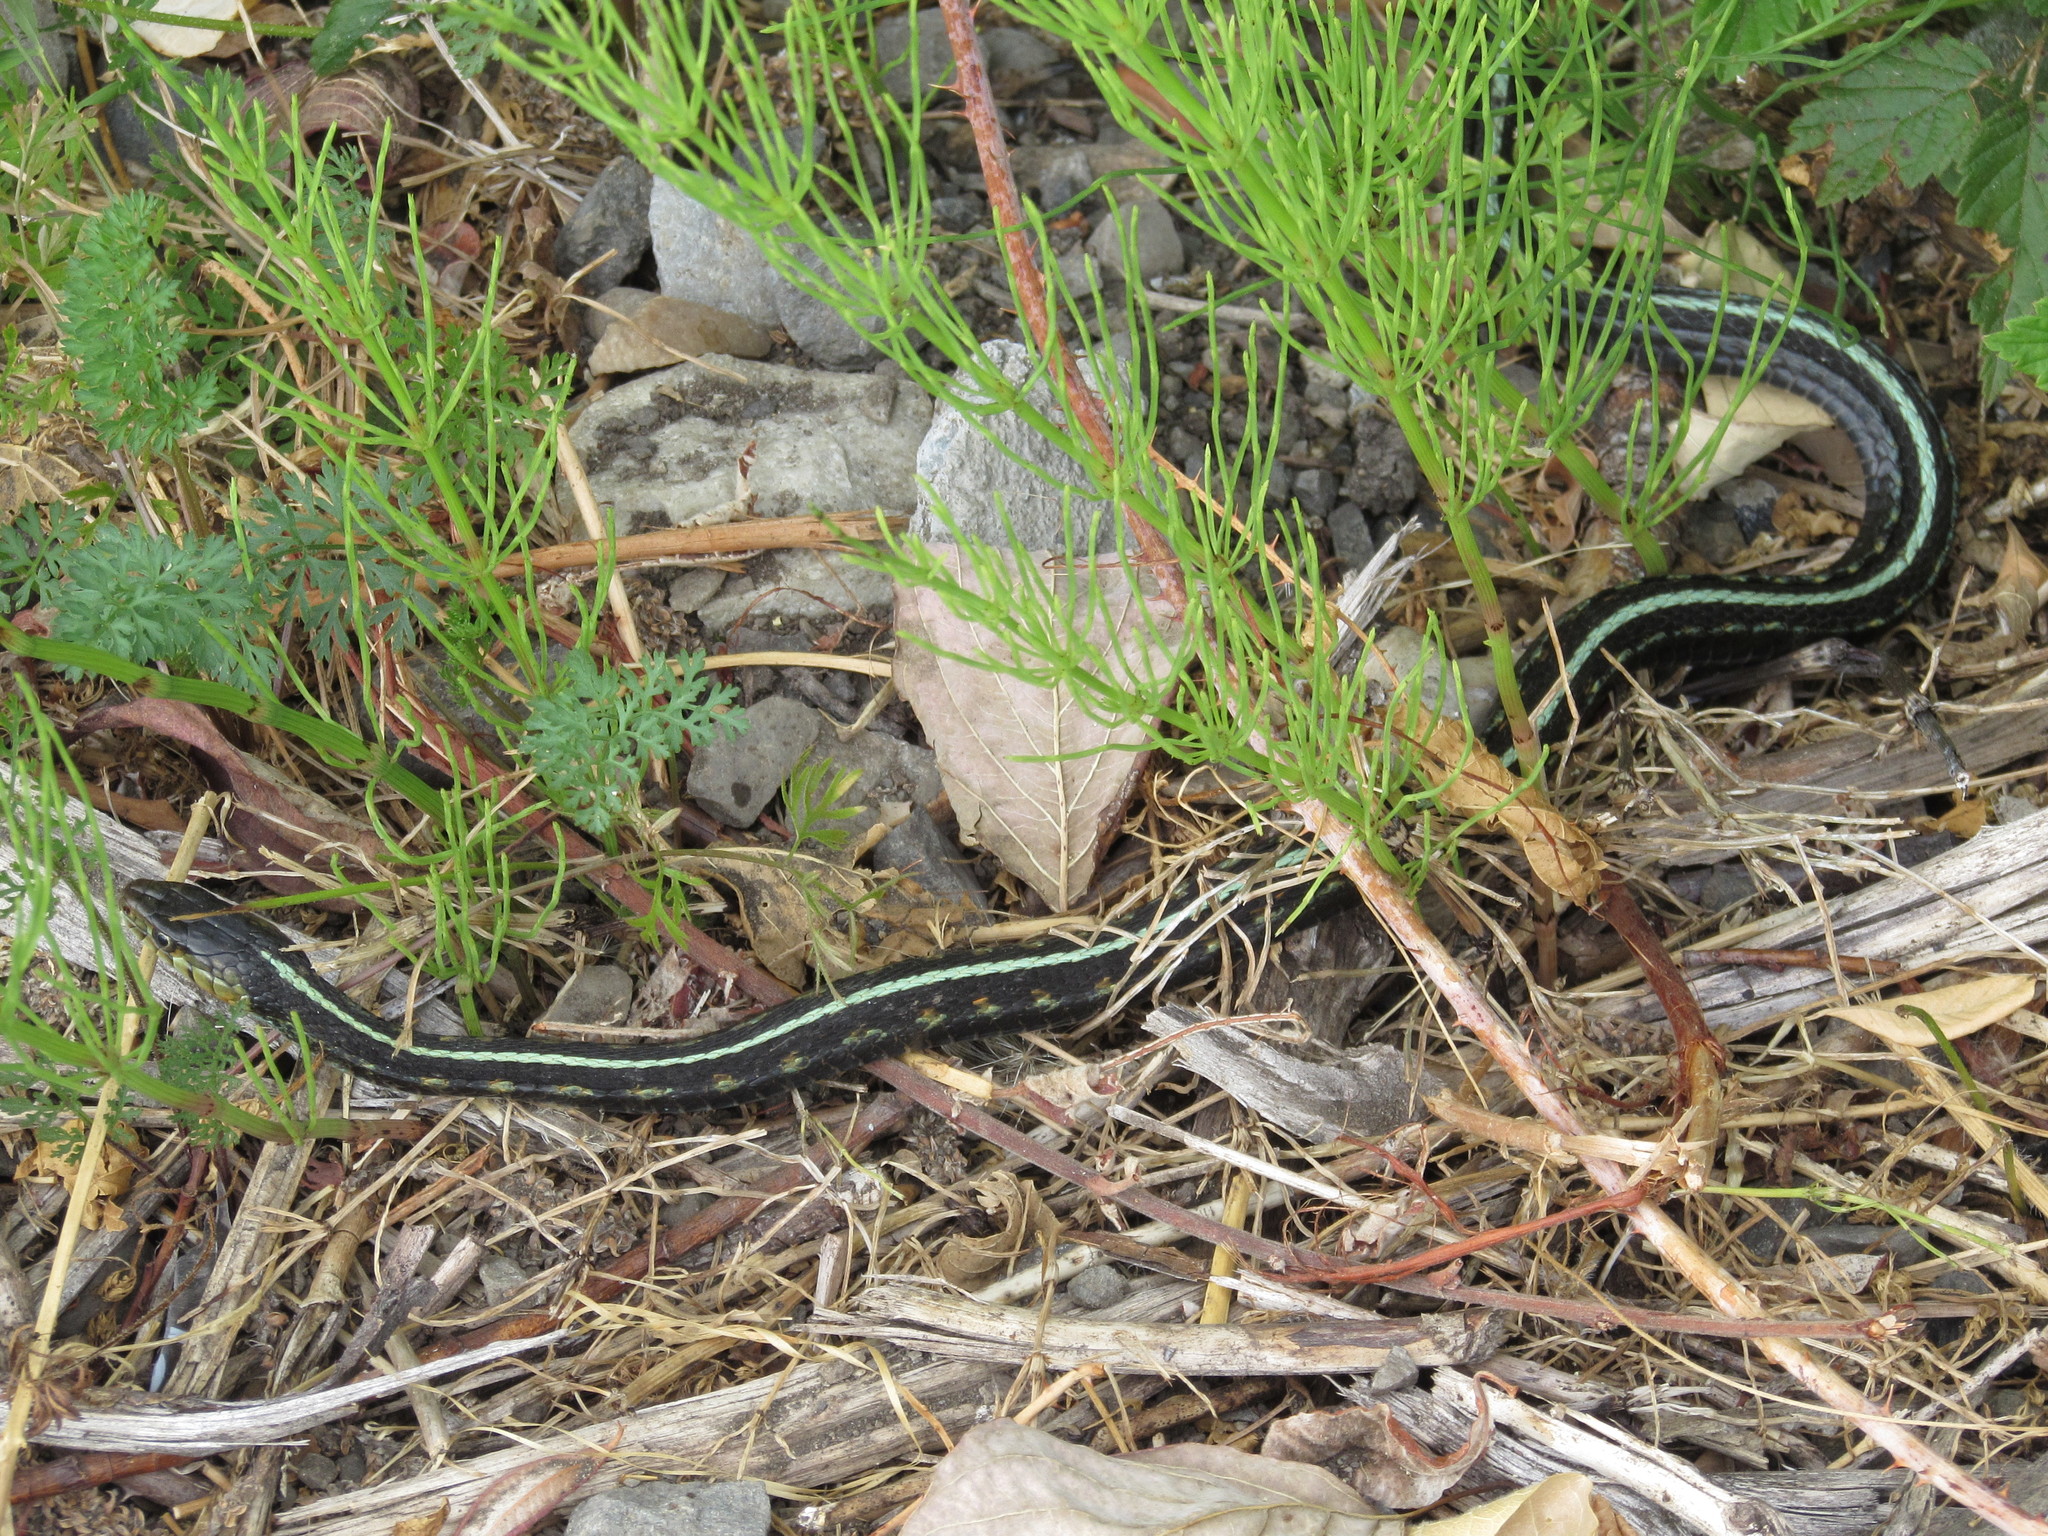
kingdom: Animalia
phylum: Chordata
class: Squamata
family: Colubridae
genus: Thamnophis
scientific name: Thamnophis sirtalis
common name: Common garter snake
